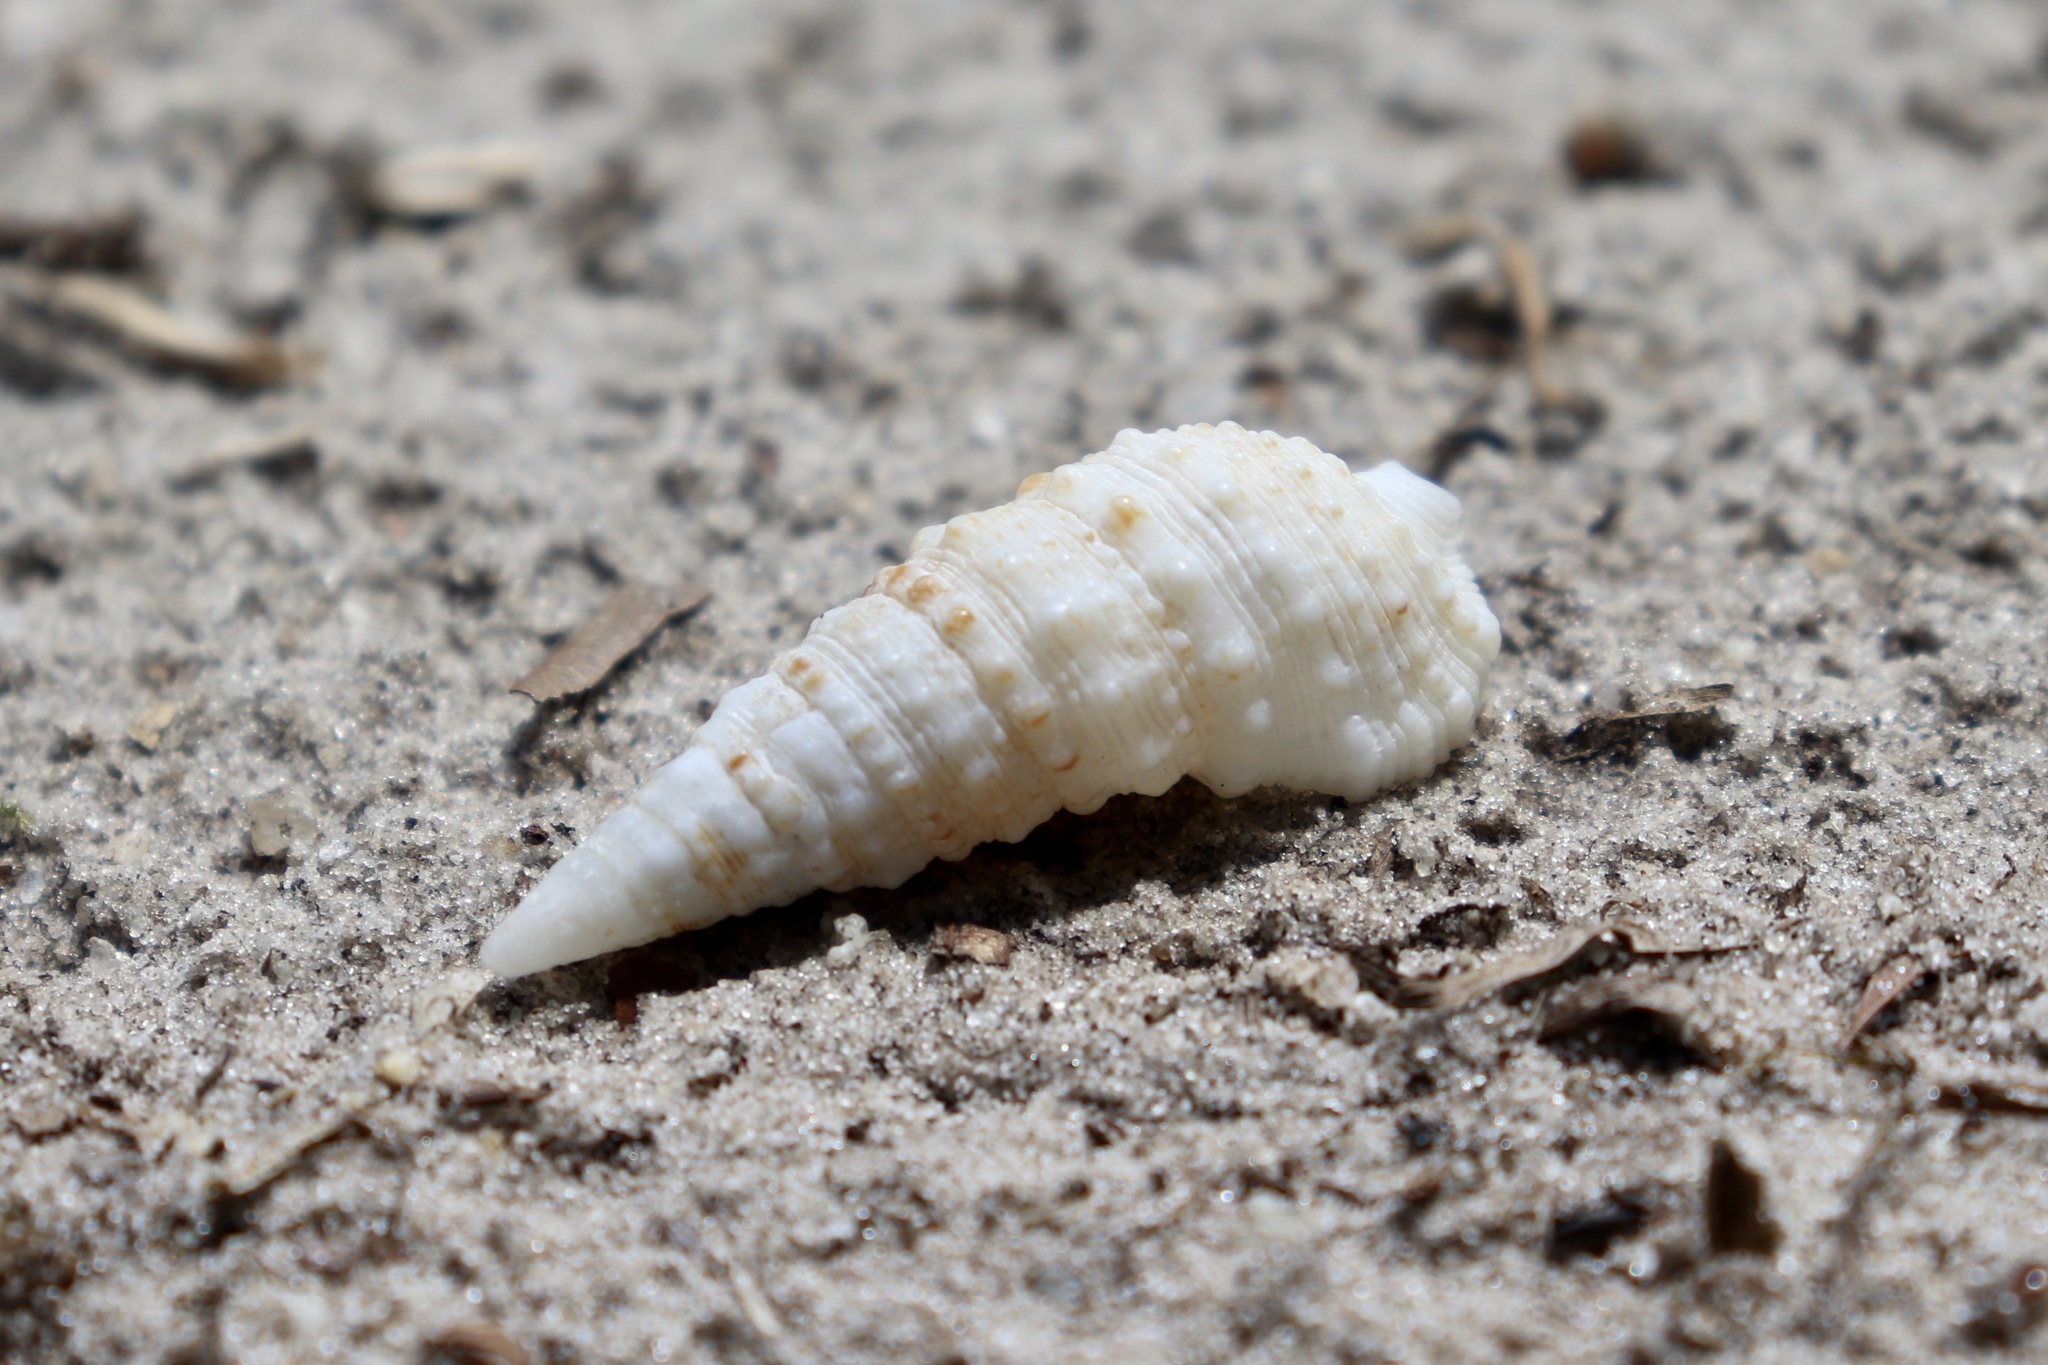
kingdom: Animalia
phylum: Mollusca
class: Gastropoda
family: Cerithiidae
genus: Cerithium
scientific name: Cerithium atratum
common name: Dark cerith
